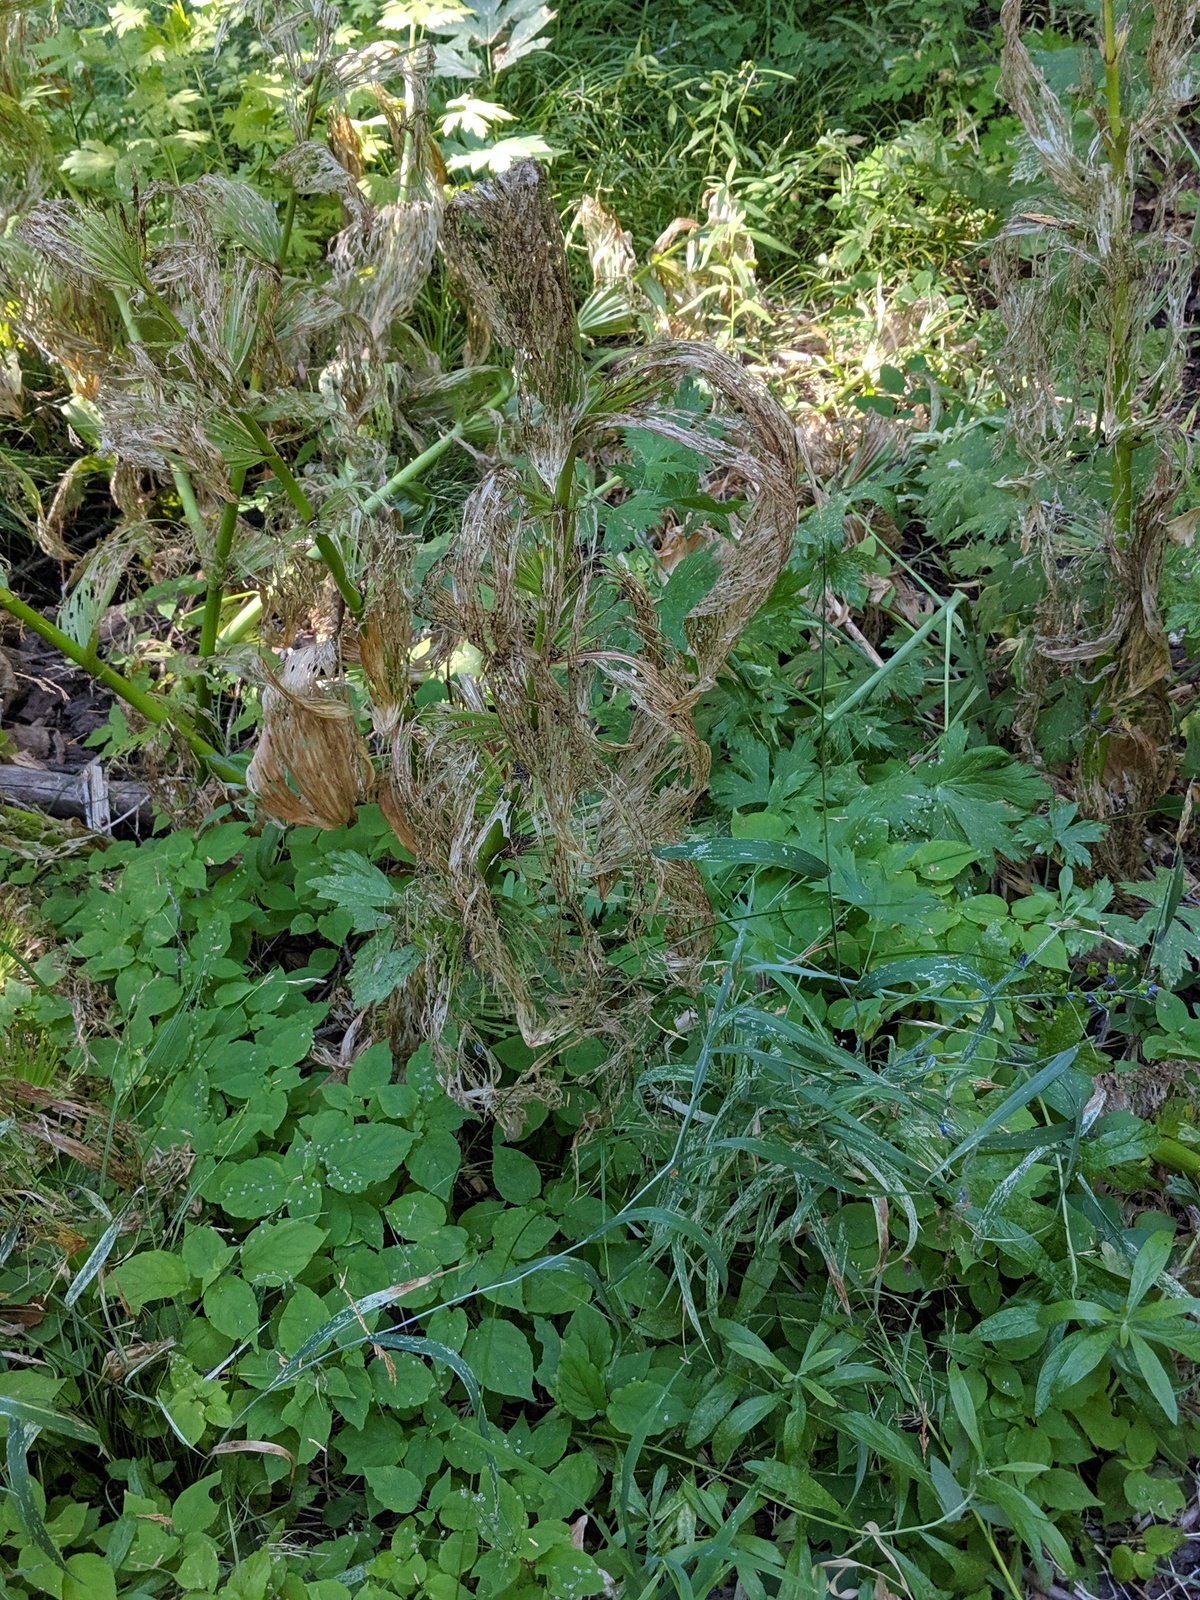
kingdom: Plantae
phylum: Tracheophyta
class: Liliopsida
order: Liliales
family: Melanthiaceae
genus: Veratrum
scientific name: Veratrum californicum
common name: California veratrum
